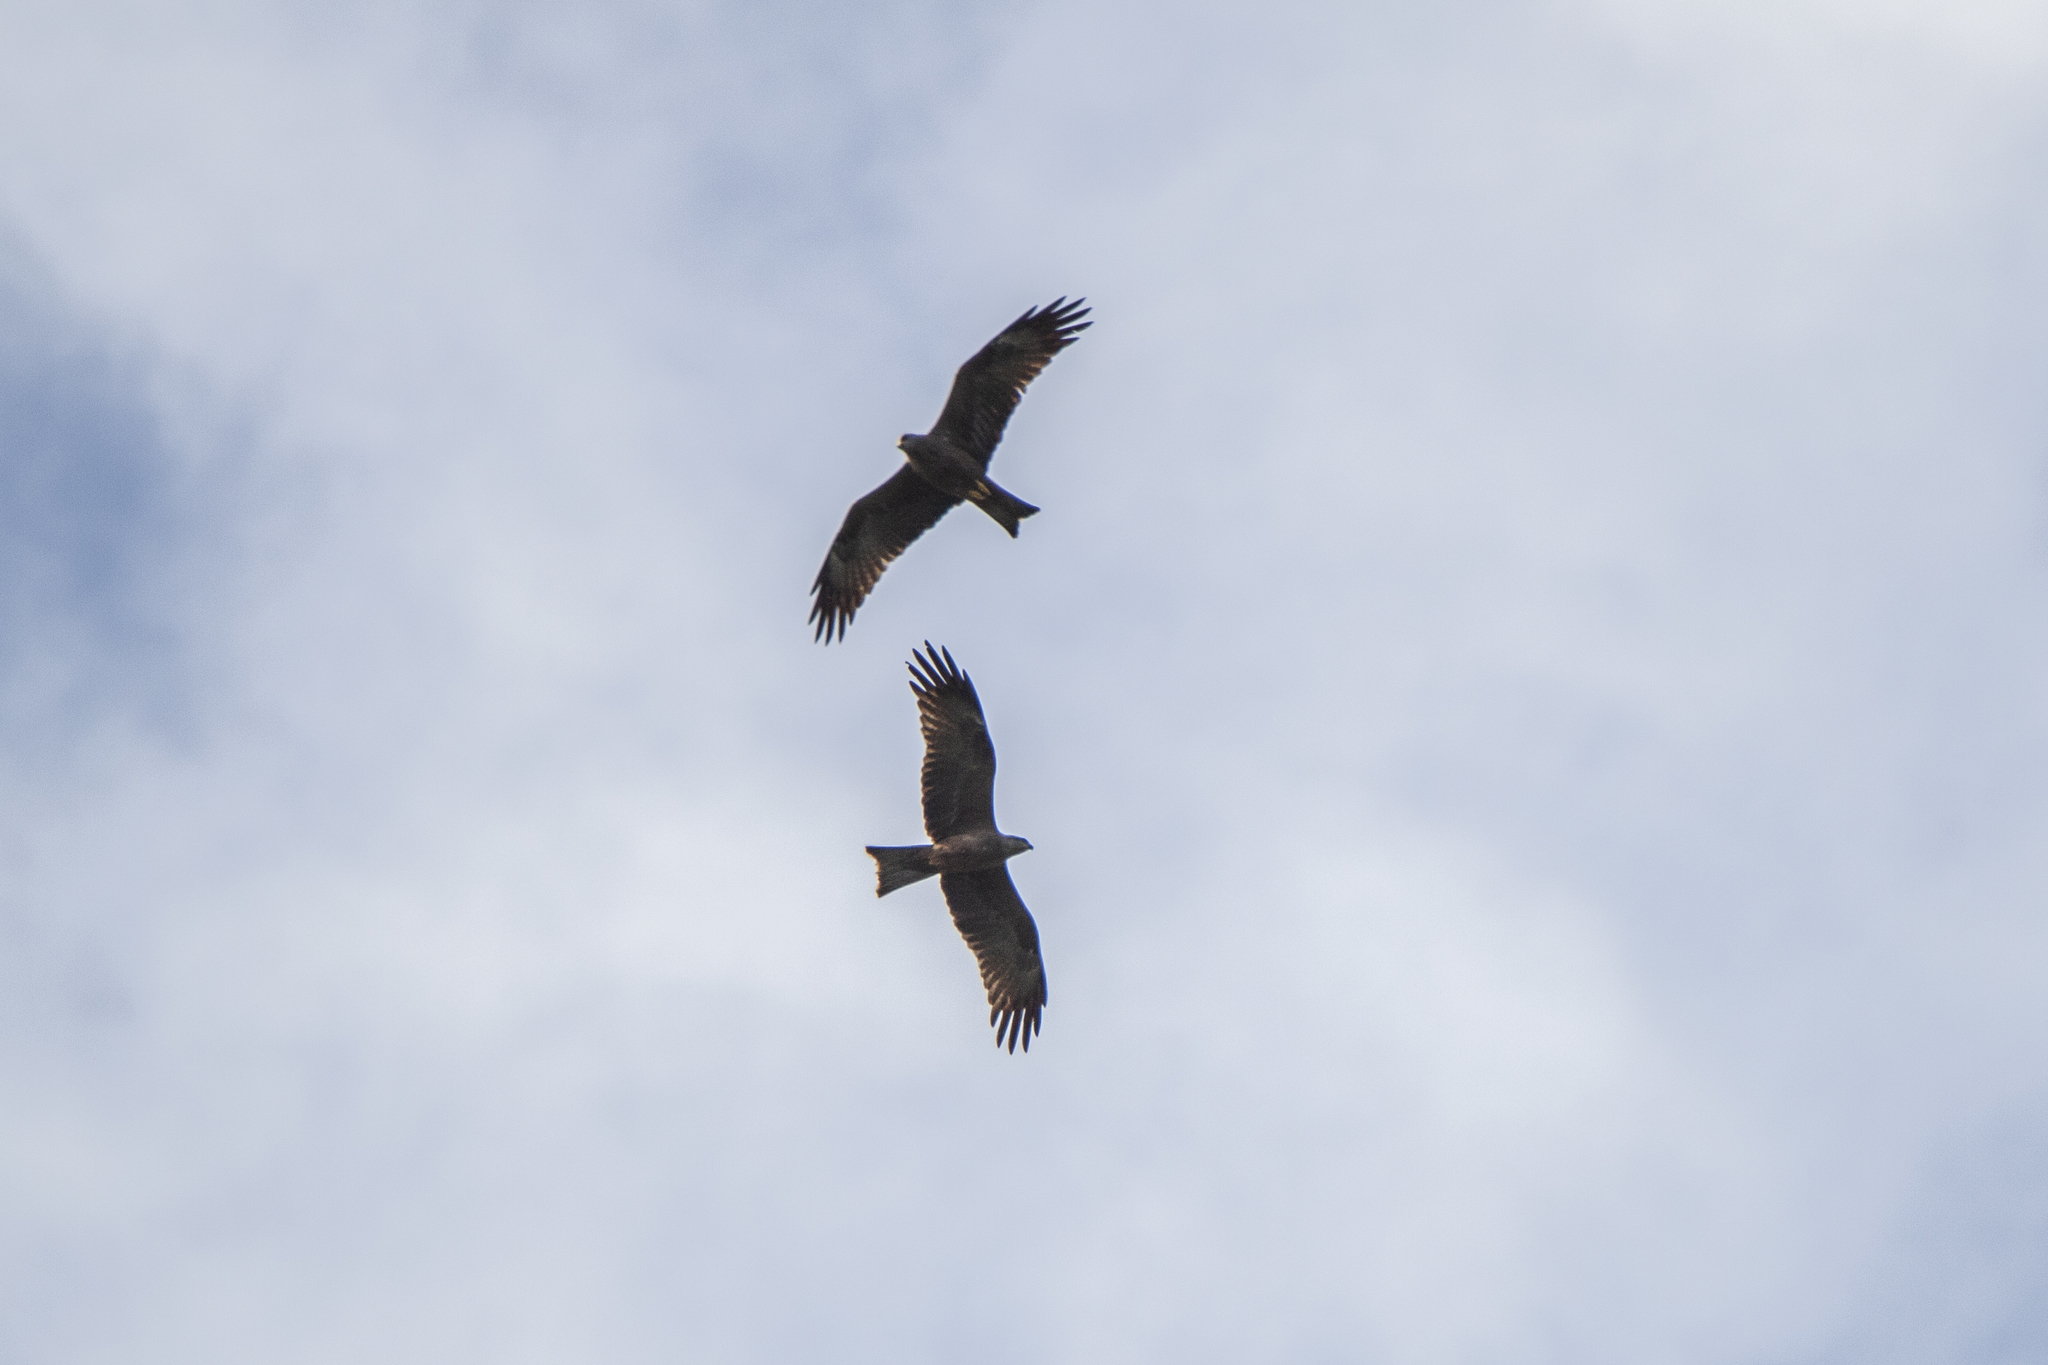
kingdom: Animalia
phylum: Chordata
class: Aves
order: Accipitriformes
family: Accipitridae
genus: Milvus
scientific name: Milvus migrans
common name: Black kite
